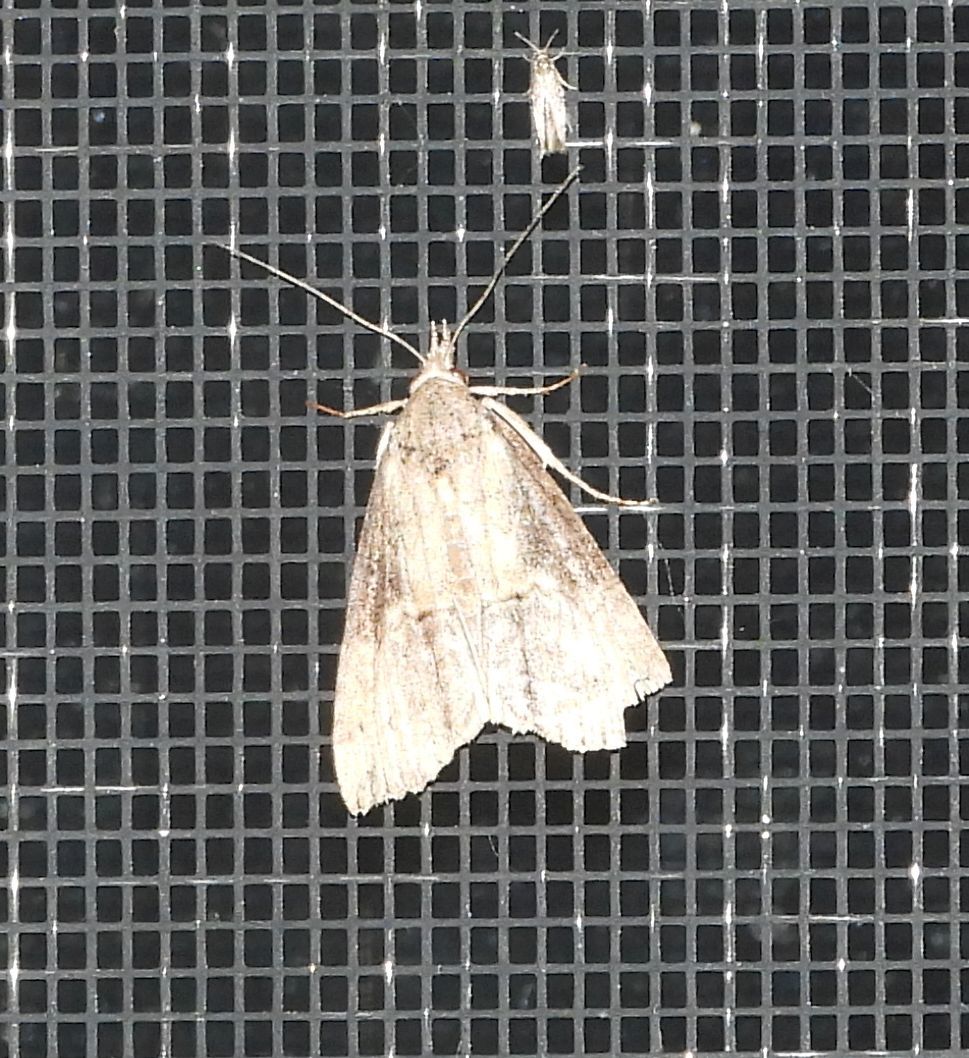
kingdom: Animalia
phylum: Arthropoda
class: Insecta
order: Lepidoptera
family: Erebidae
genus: Hypena
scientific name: Hypena scabra
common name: Green cloverworm
